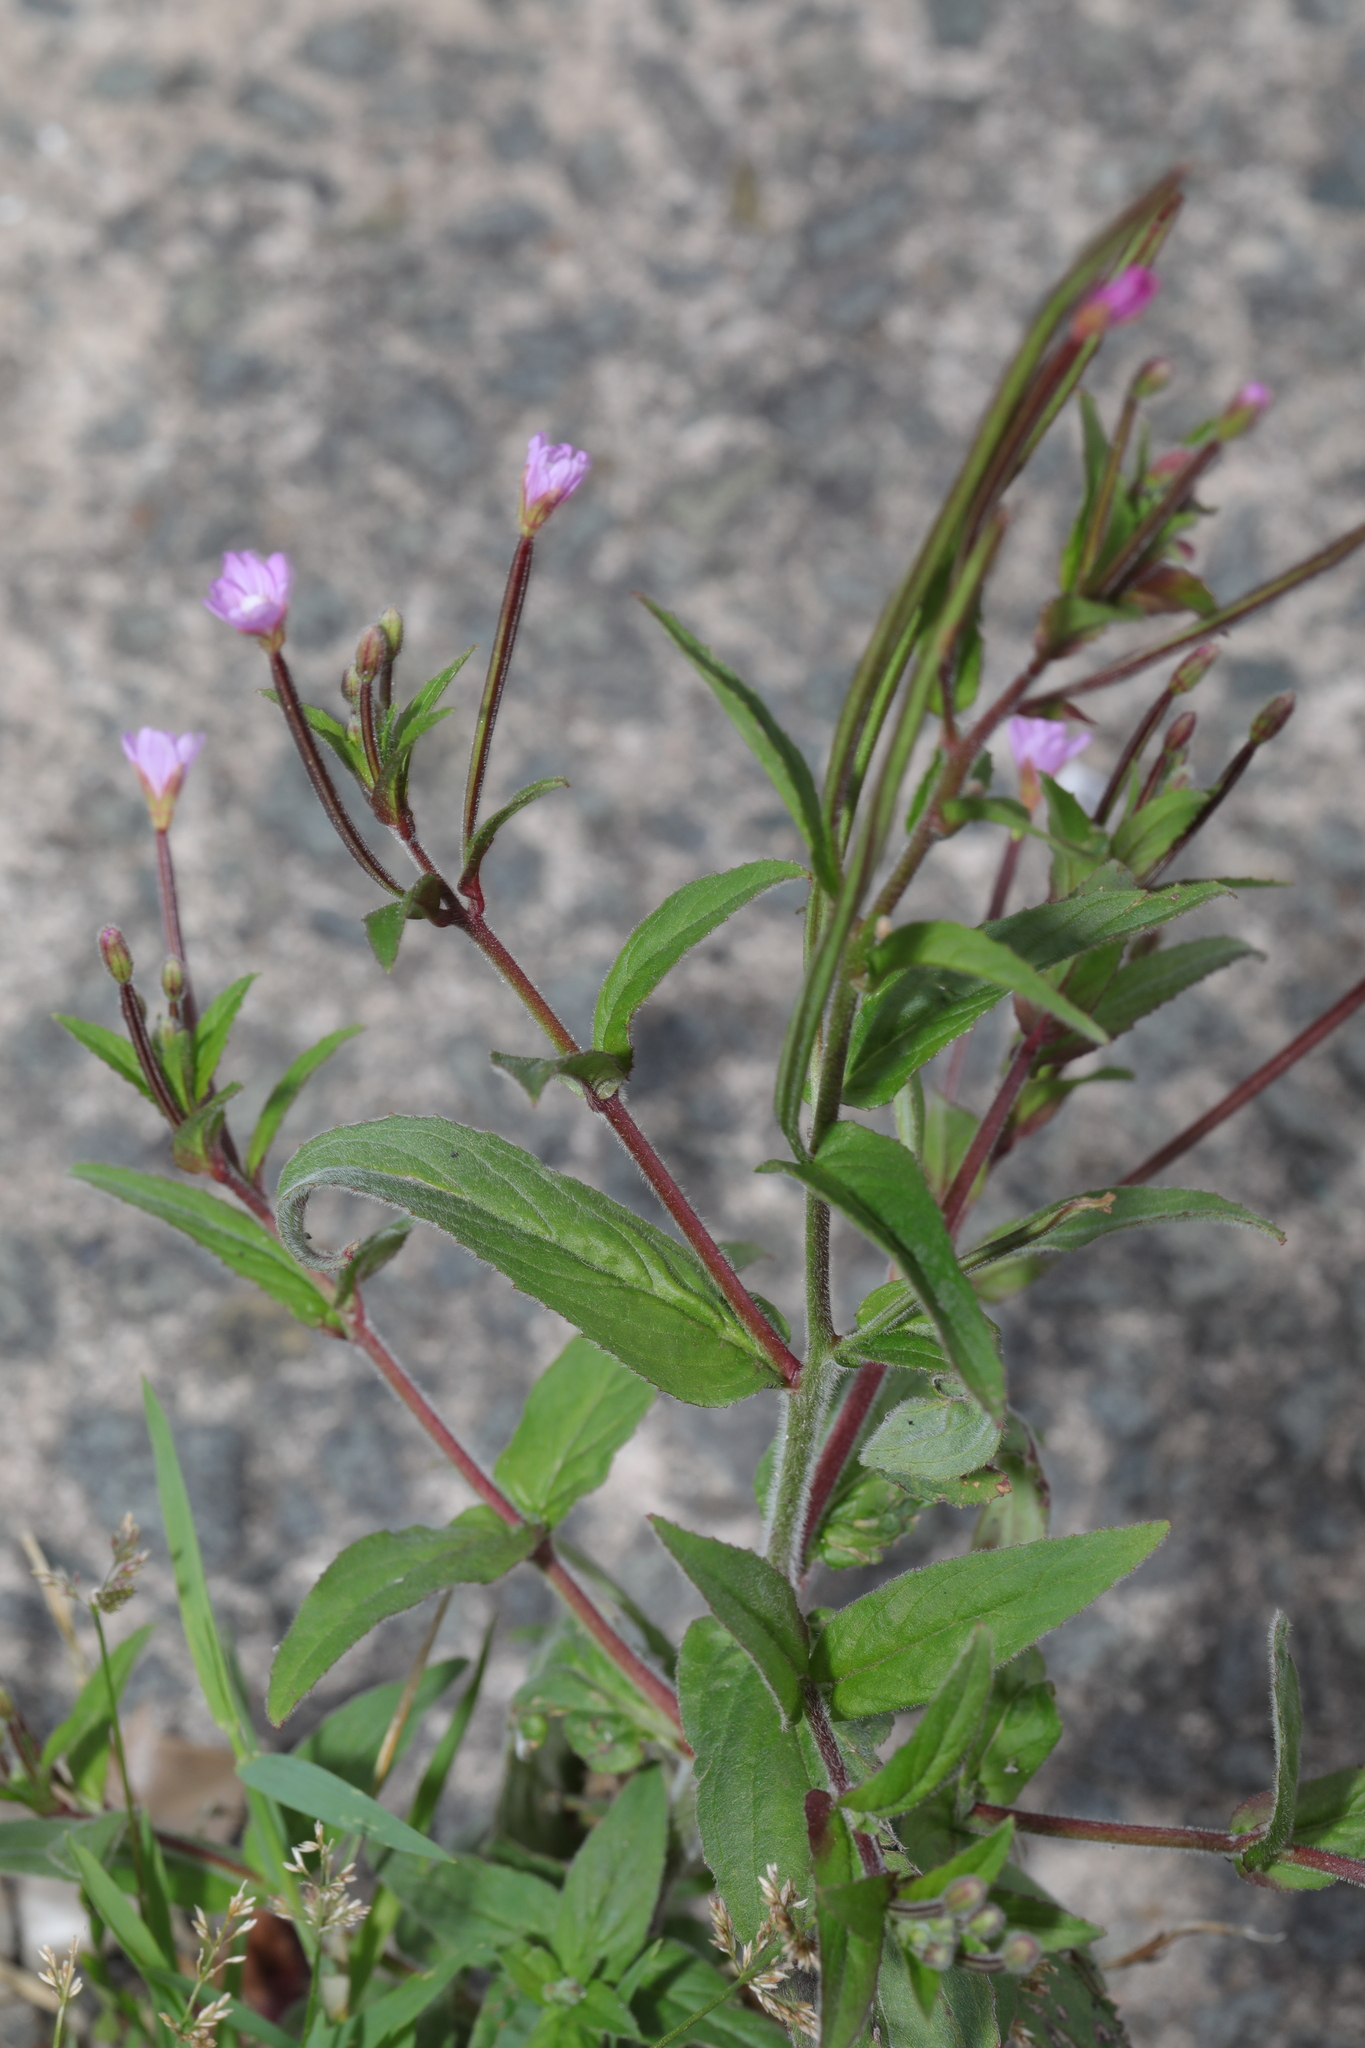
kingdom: Plantae
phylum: Tracheophyta
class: Magnoliopsida
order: Myrtales
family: Onagraceae
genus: Epilobium
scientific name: Epilobium parviflorum
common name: Hoary willowherb
